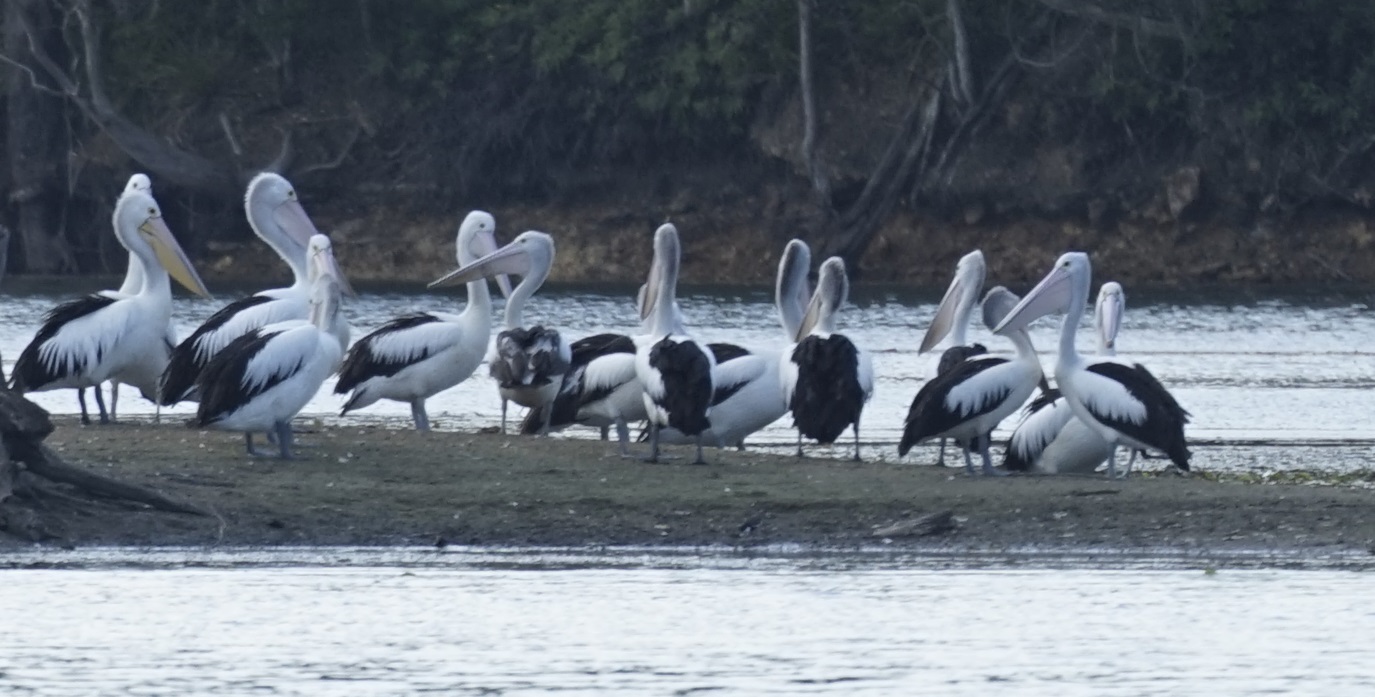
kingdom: Animalia
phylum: Chordata
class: Aves
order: Pelecaniformes
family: Pelecanidae
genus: Pelecanus
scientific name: Pelecanus conspicillatus
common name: Australian pelican
